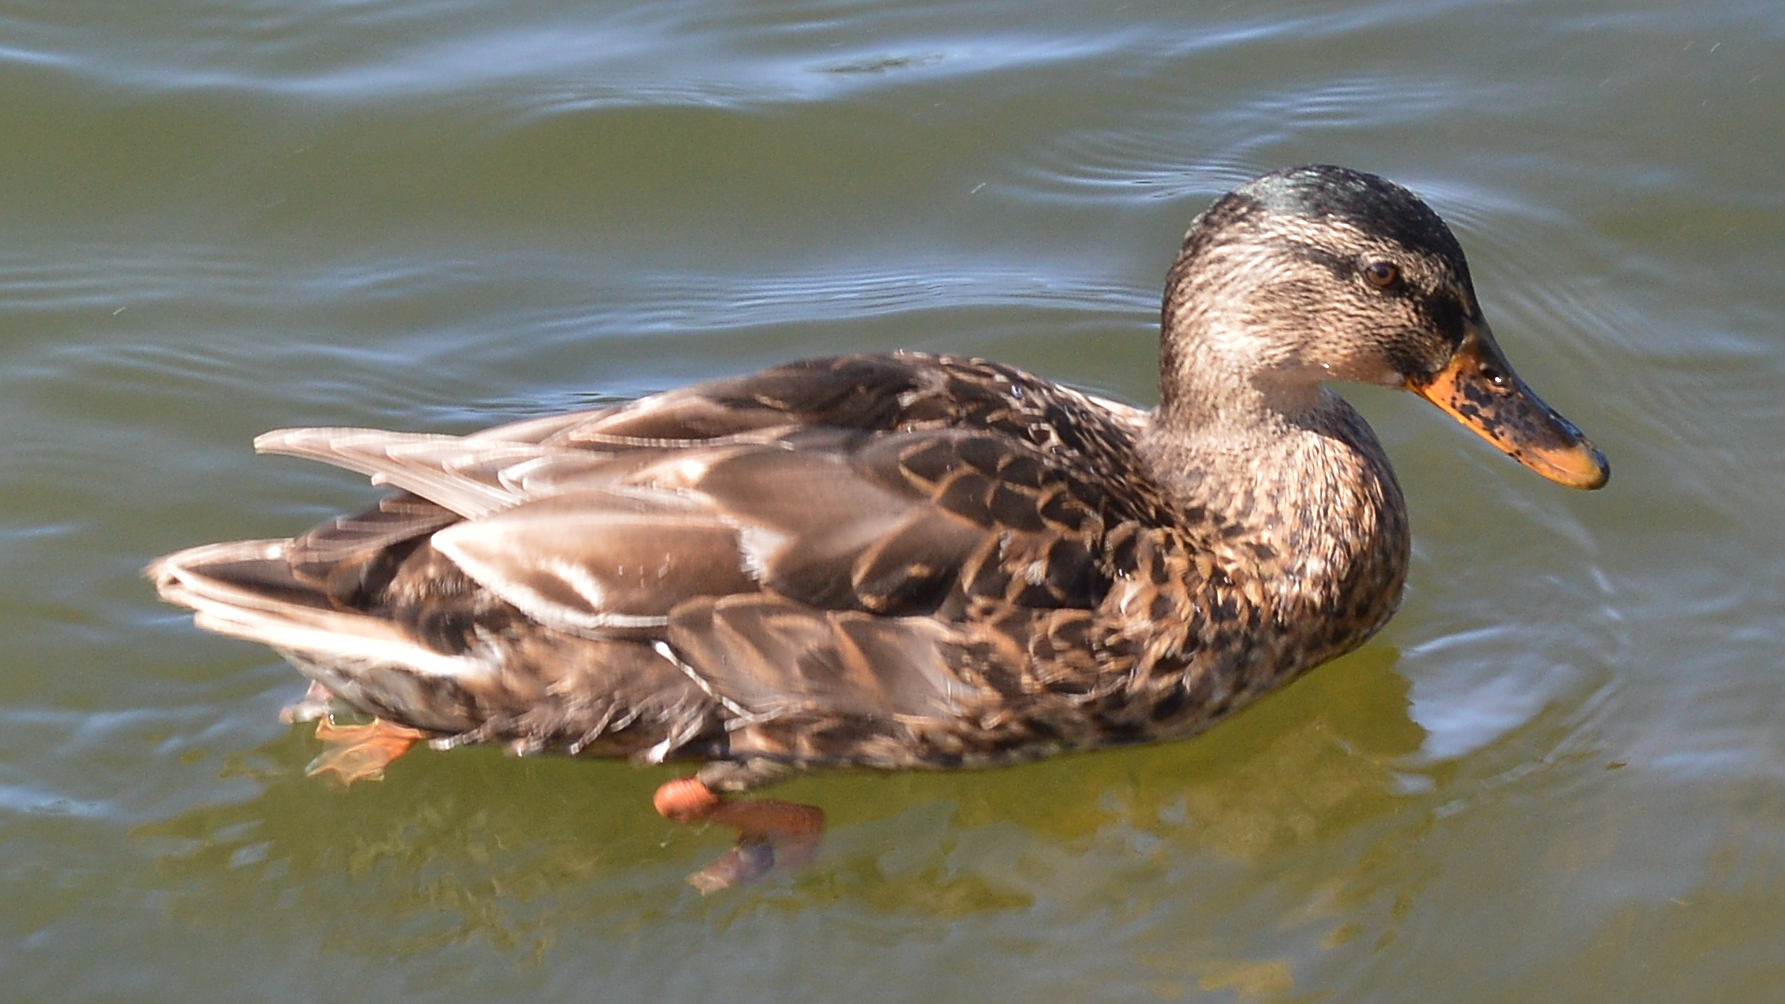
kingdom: Animalia
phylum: Chordata
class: Aves
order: Anseriformes
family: Anatidae
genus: Anas
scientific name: Anas platyrhynchos
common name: Mallard
